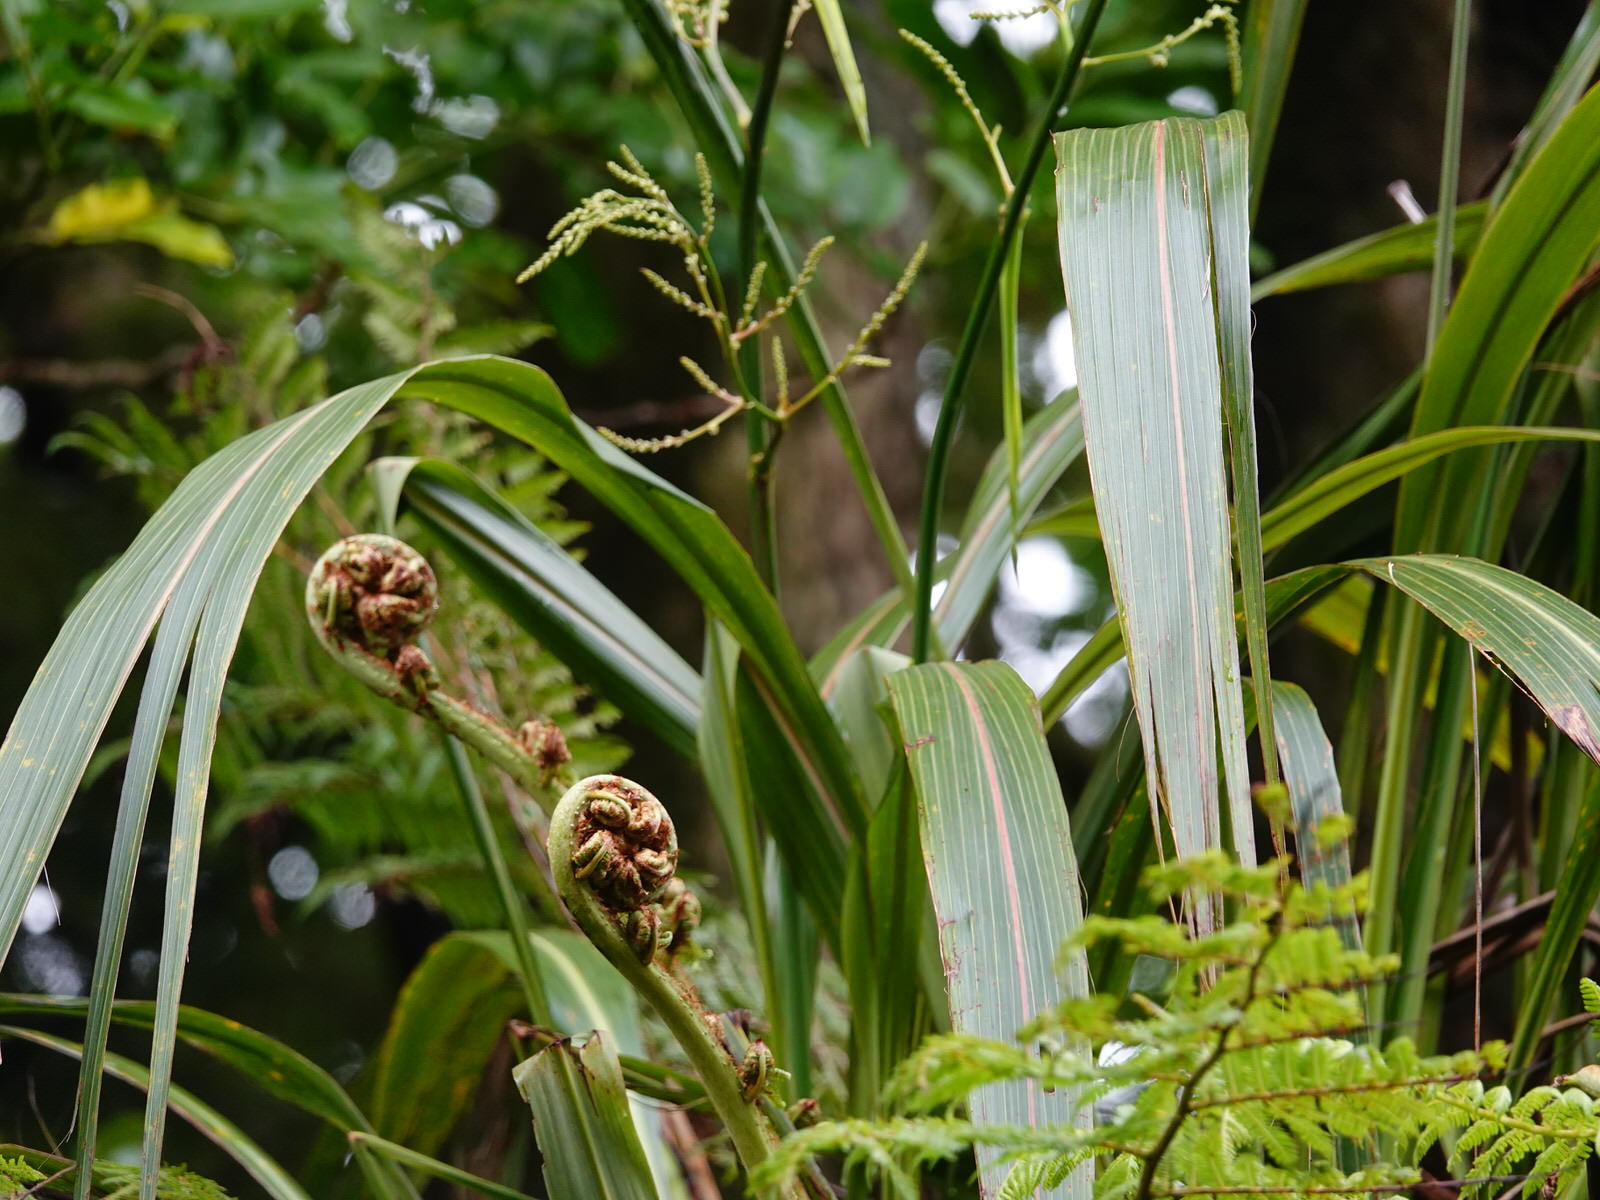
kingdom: Plantae
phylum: Tracheophyta
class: Liliopsida
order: Asparagales
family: Asparagaceae
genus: Cordyline
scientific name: Cordyline banksii
